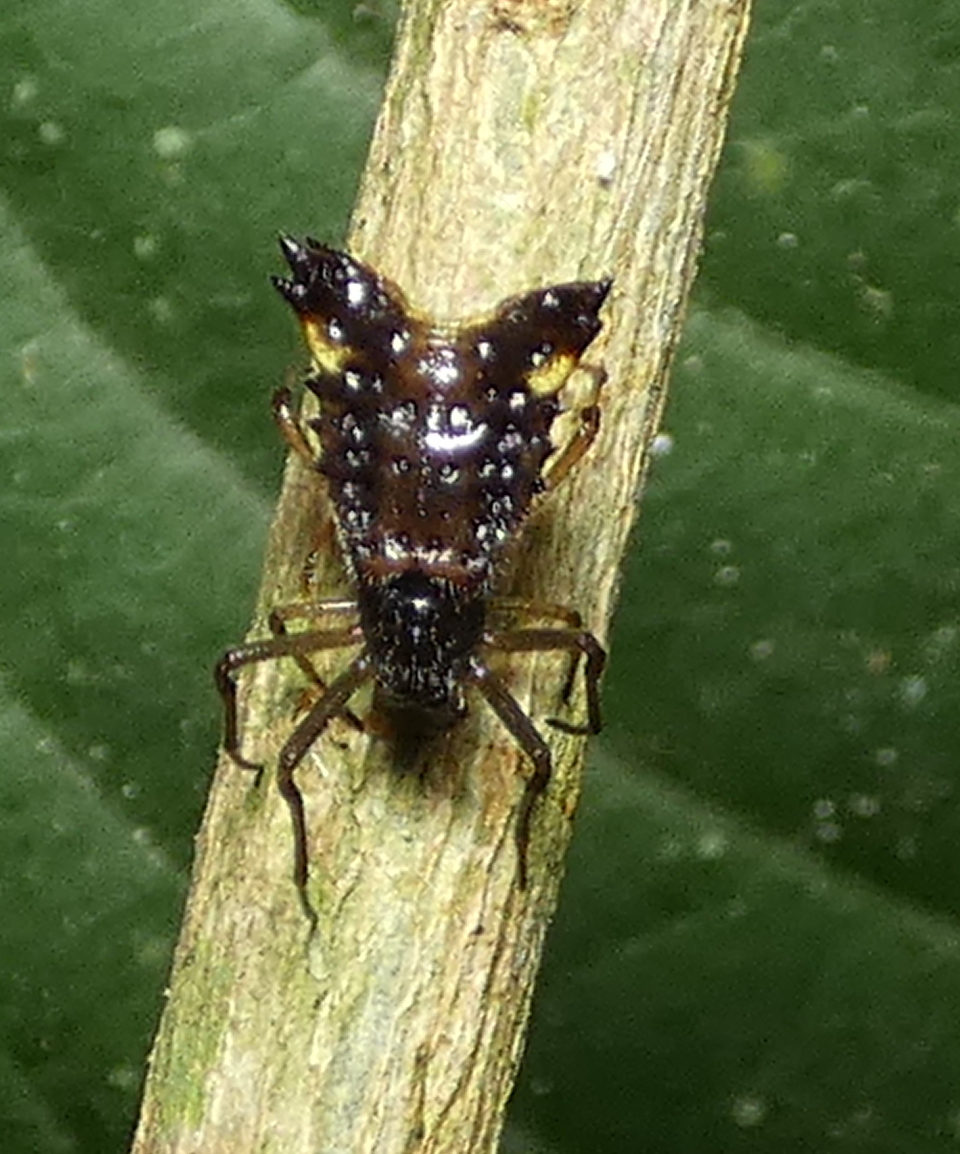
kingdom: Animalia
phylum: Arthropoda
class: Arachnida
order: Araneae
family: Araneidae
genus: Micrathena
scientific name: Micrathena triangularis
